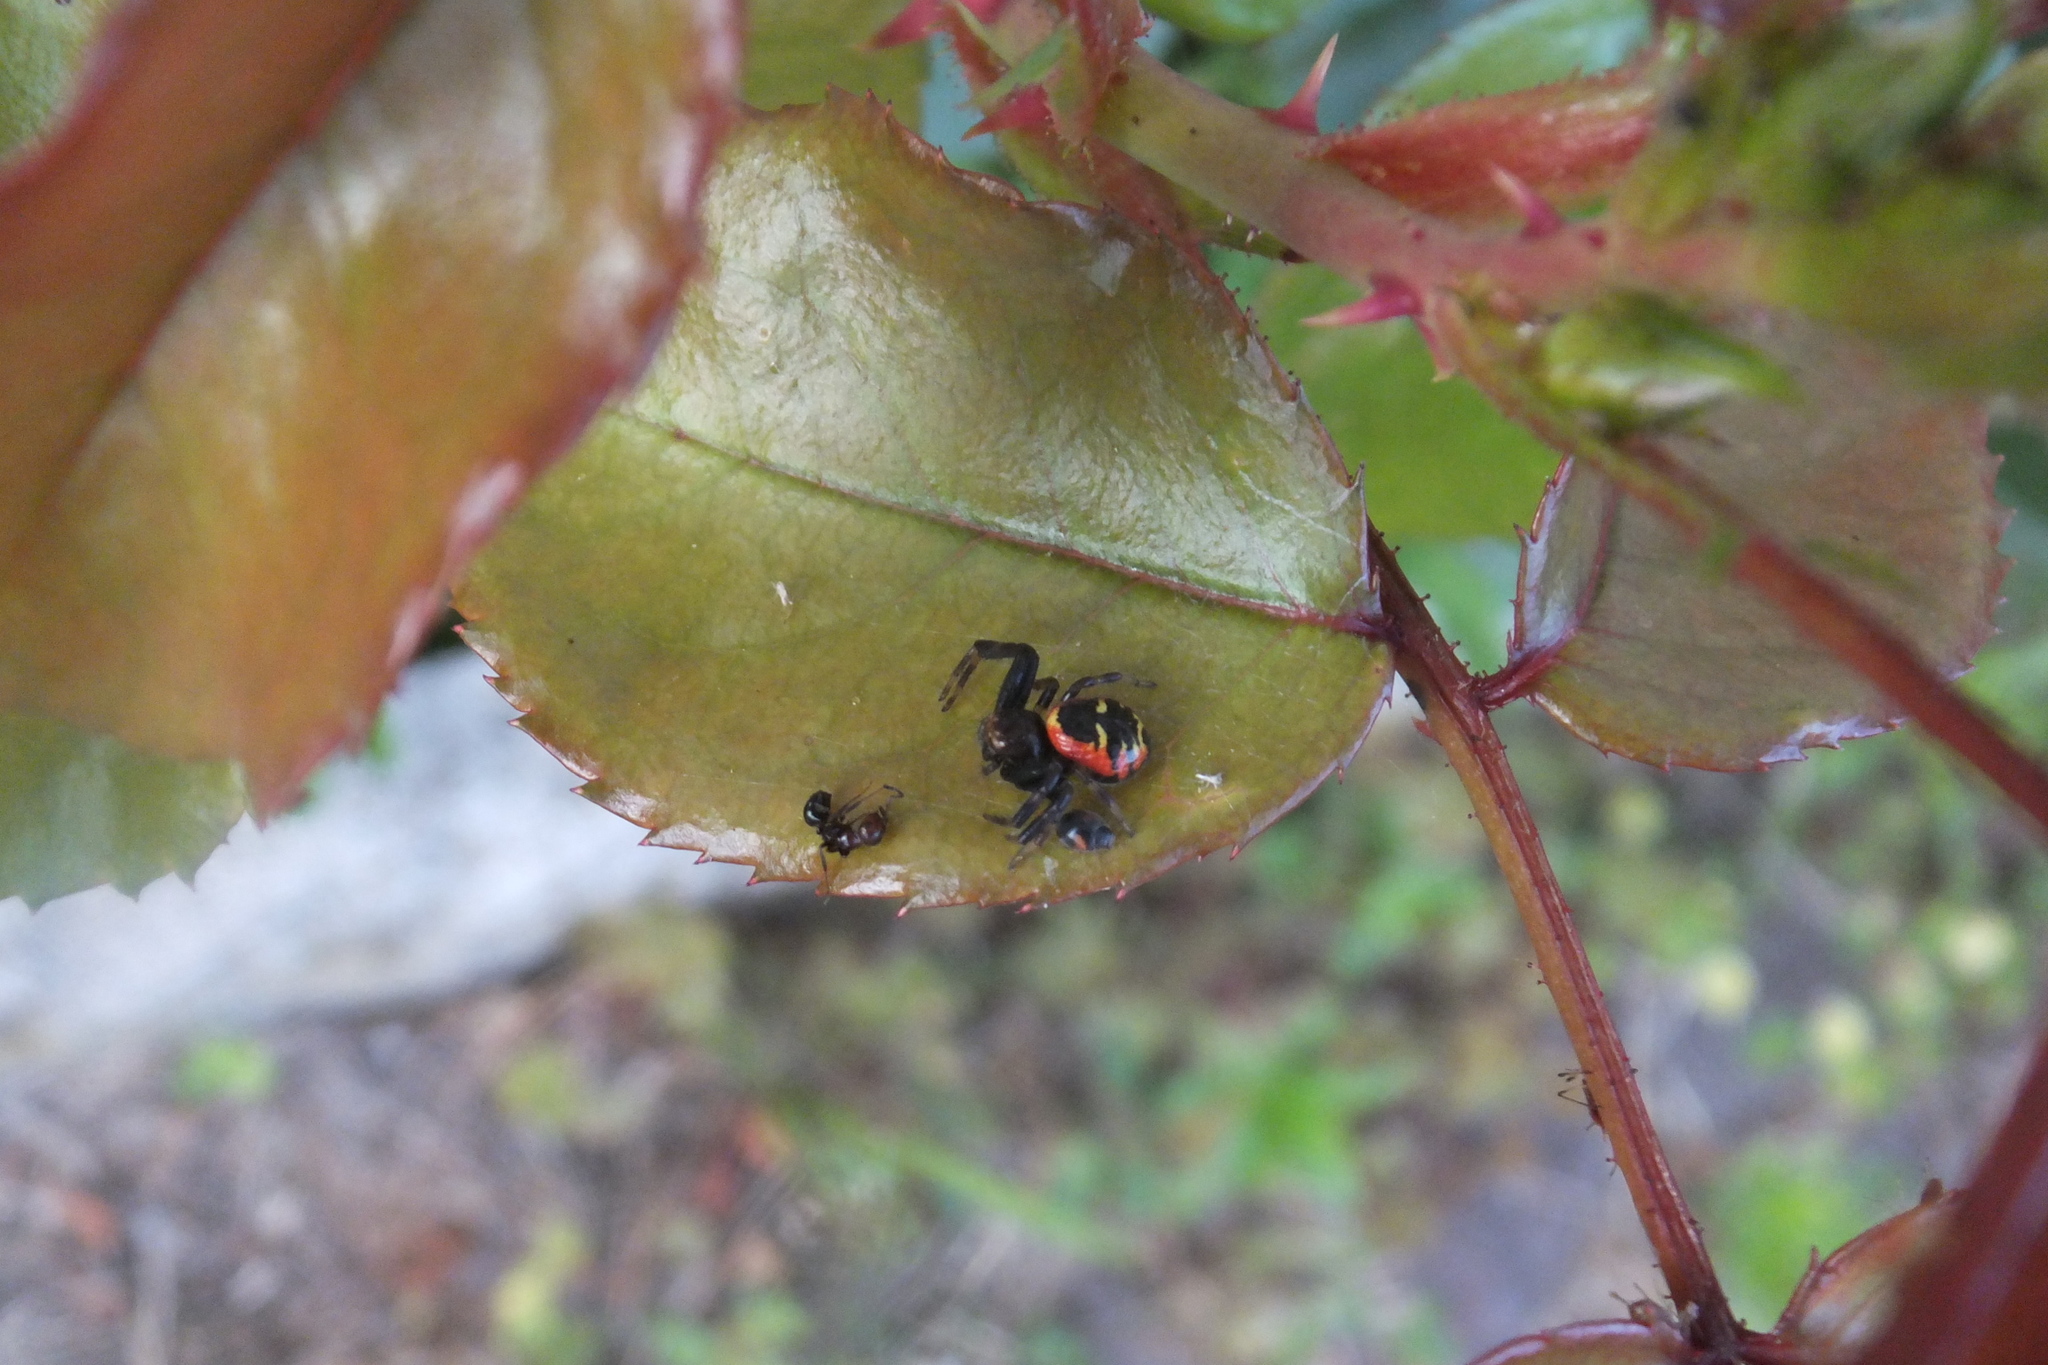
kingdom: Animalia
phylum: Arthropoda
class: Arachnida
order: Araneae
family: Thomisidae
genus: Synema
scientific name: Synema globosum
